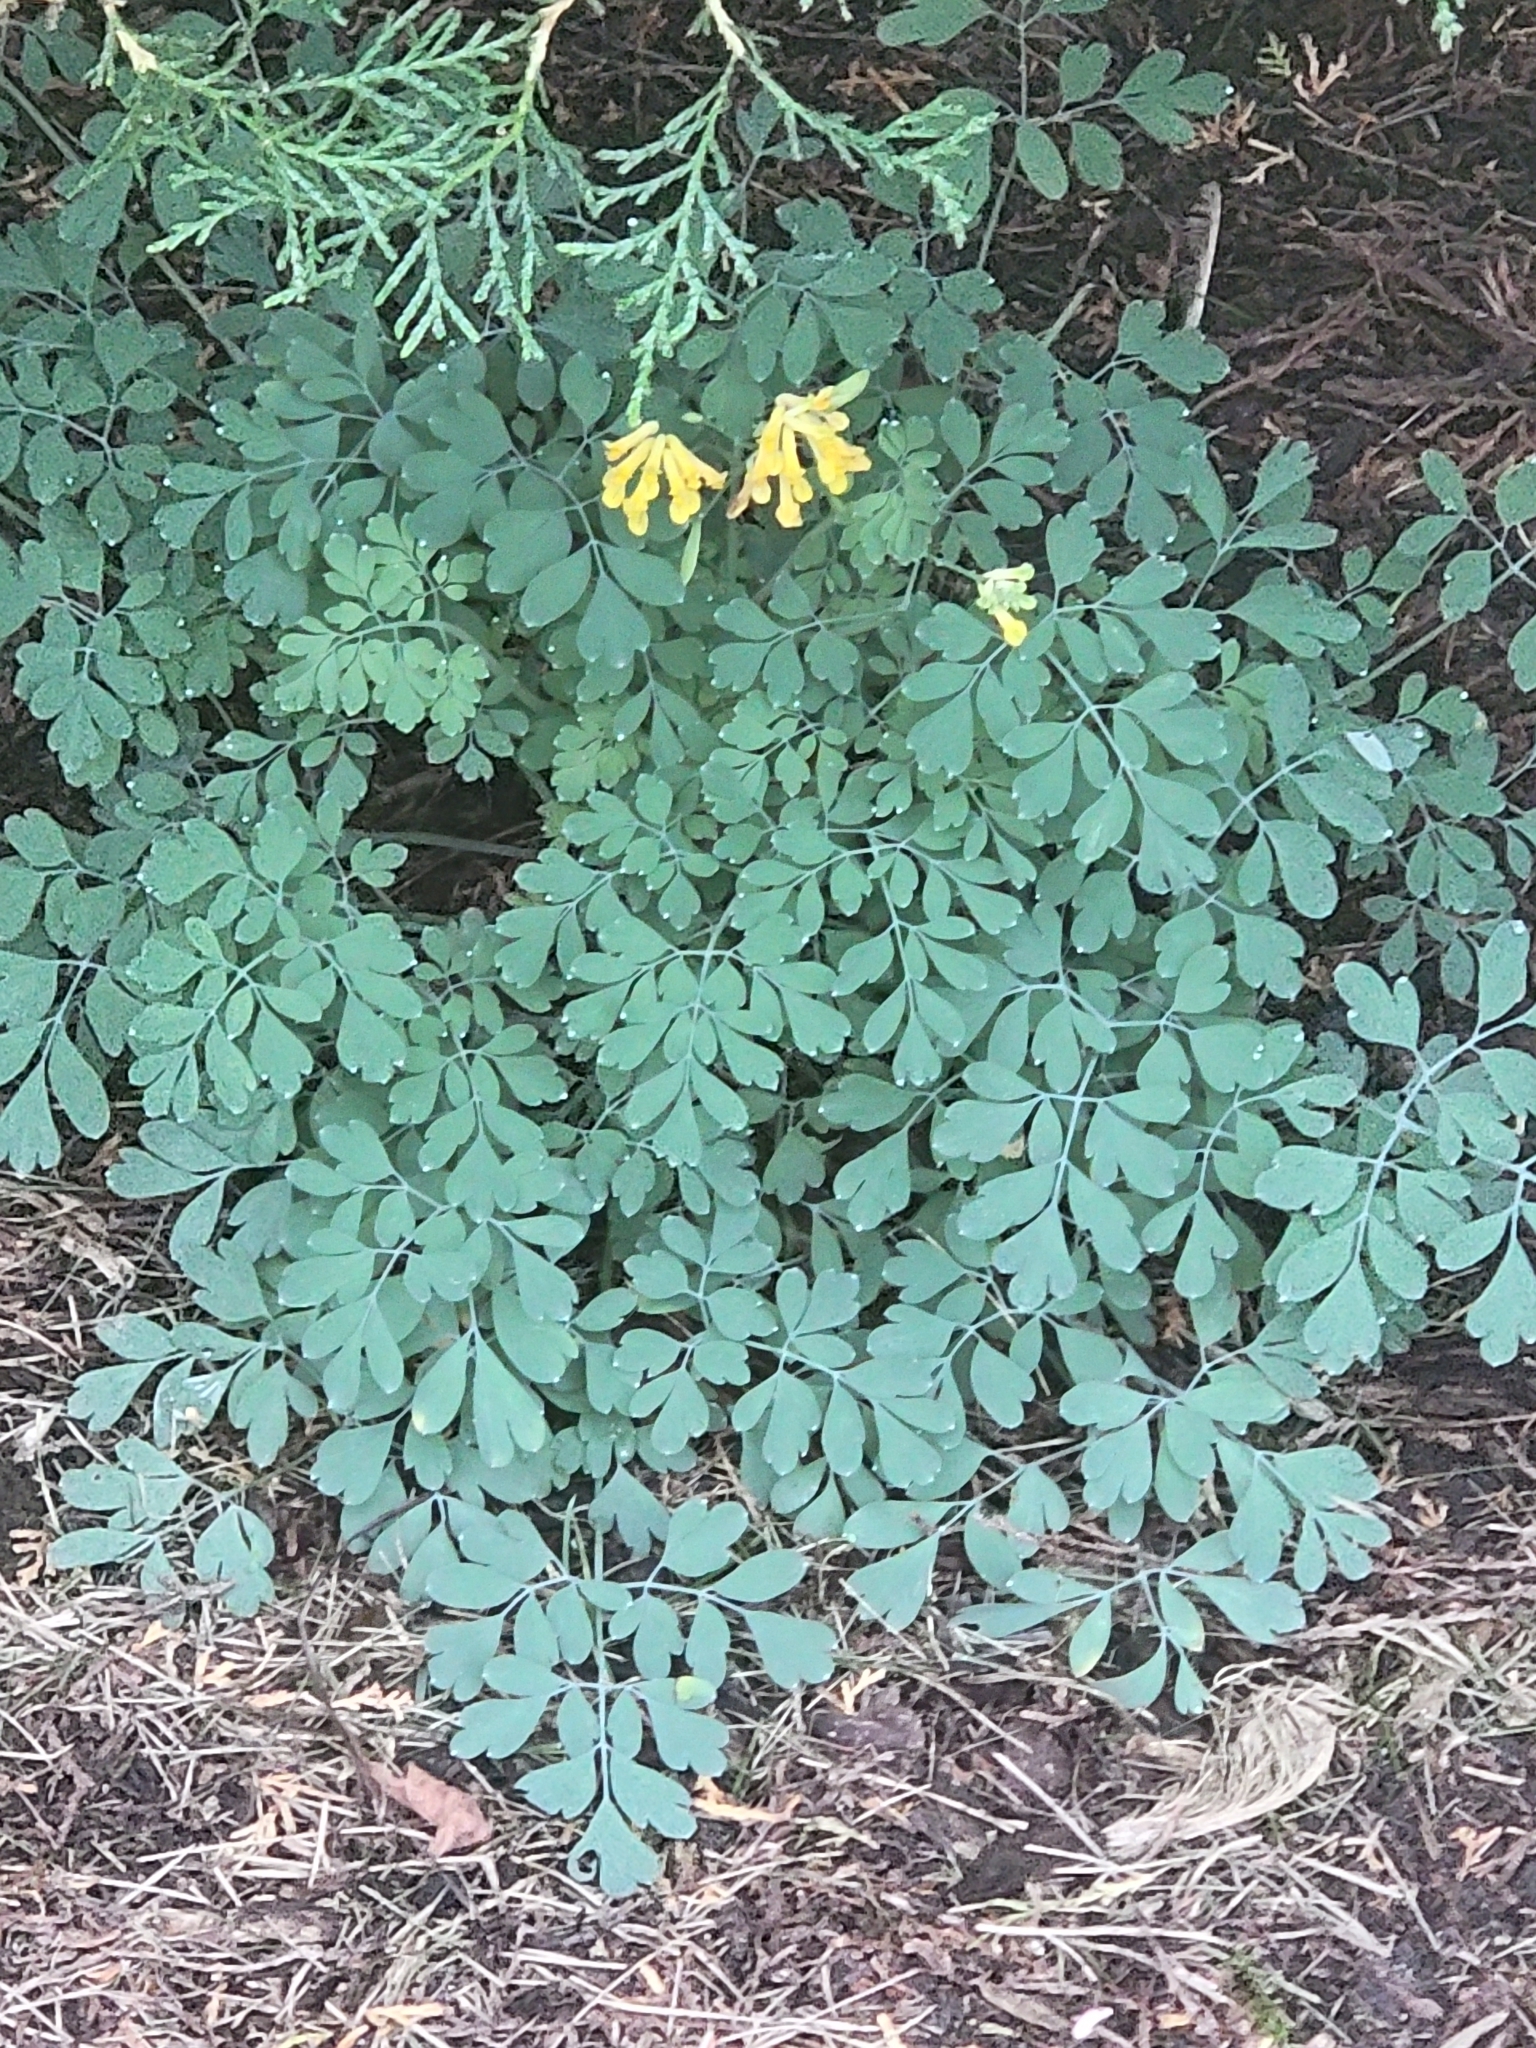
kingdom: Plantae
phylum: Tracheophyta
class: Magnoliopsida
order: Ranunculales
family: Papaveraceae
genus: Pseudofumaria
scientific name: Pseudofumaria lutea
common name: Yellow corydalis
